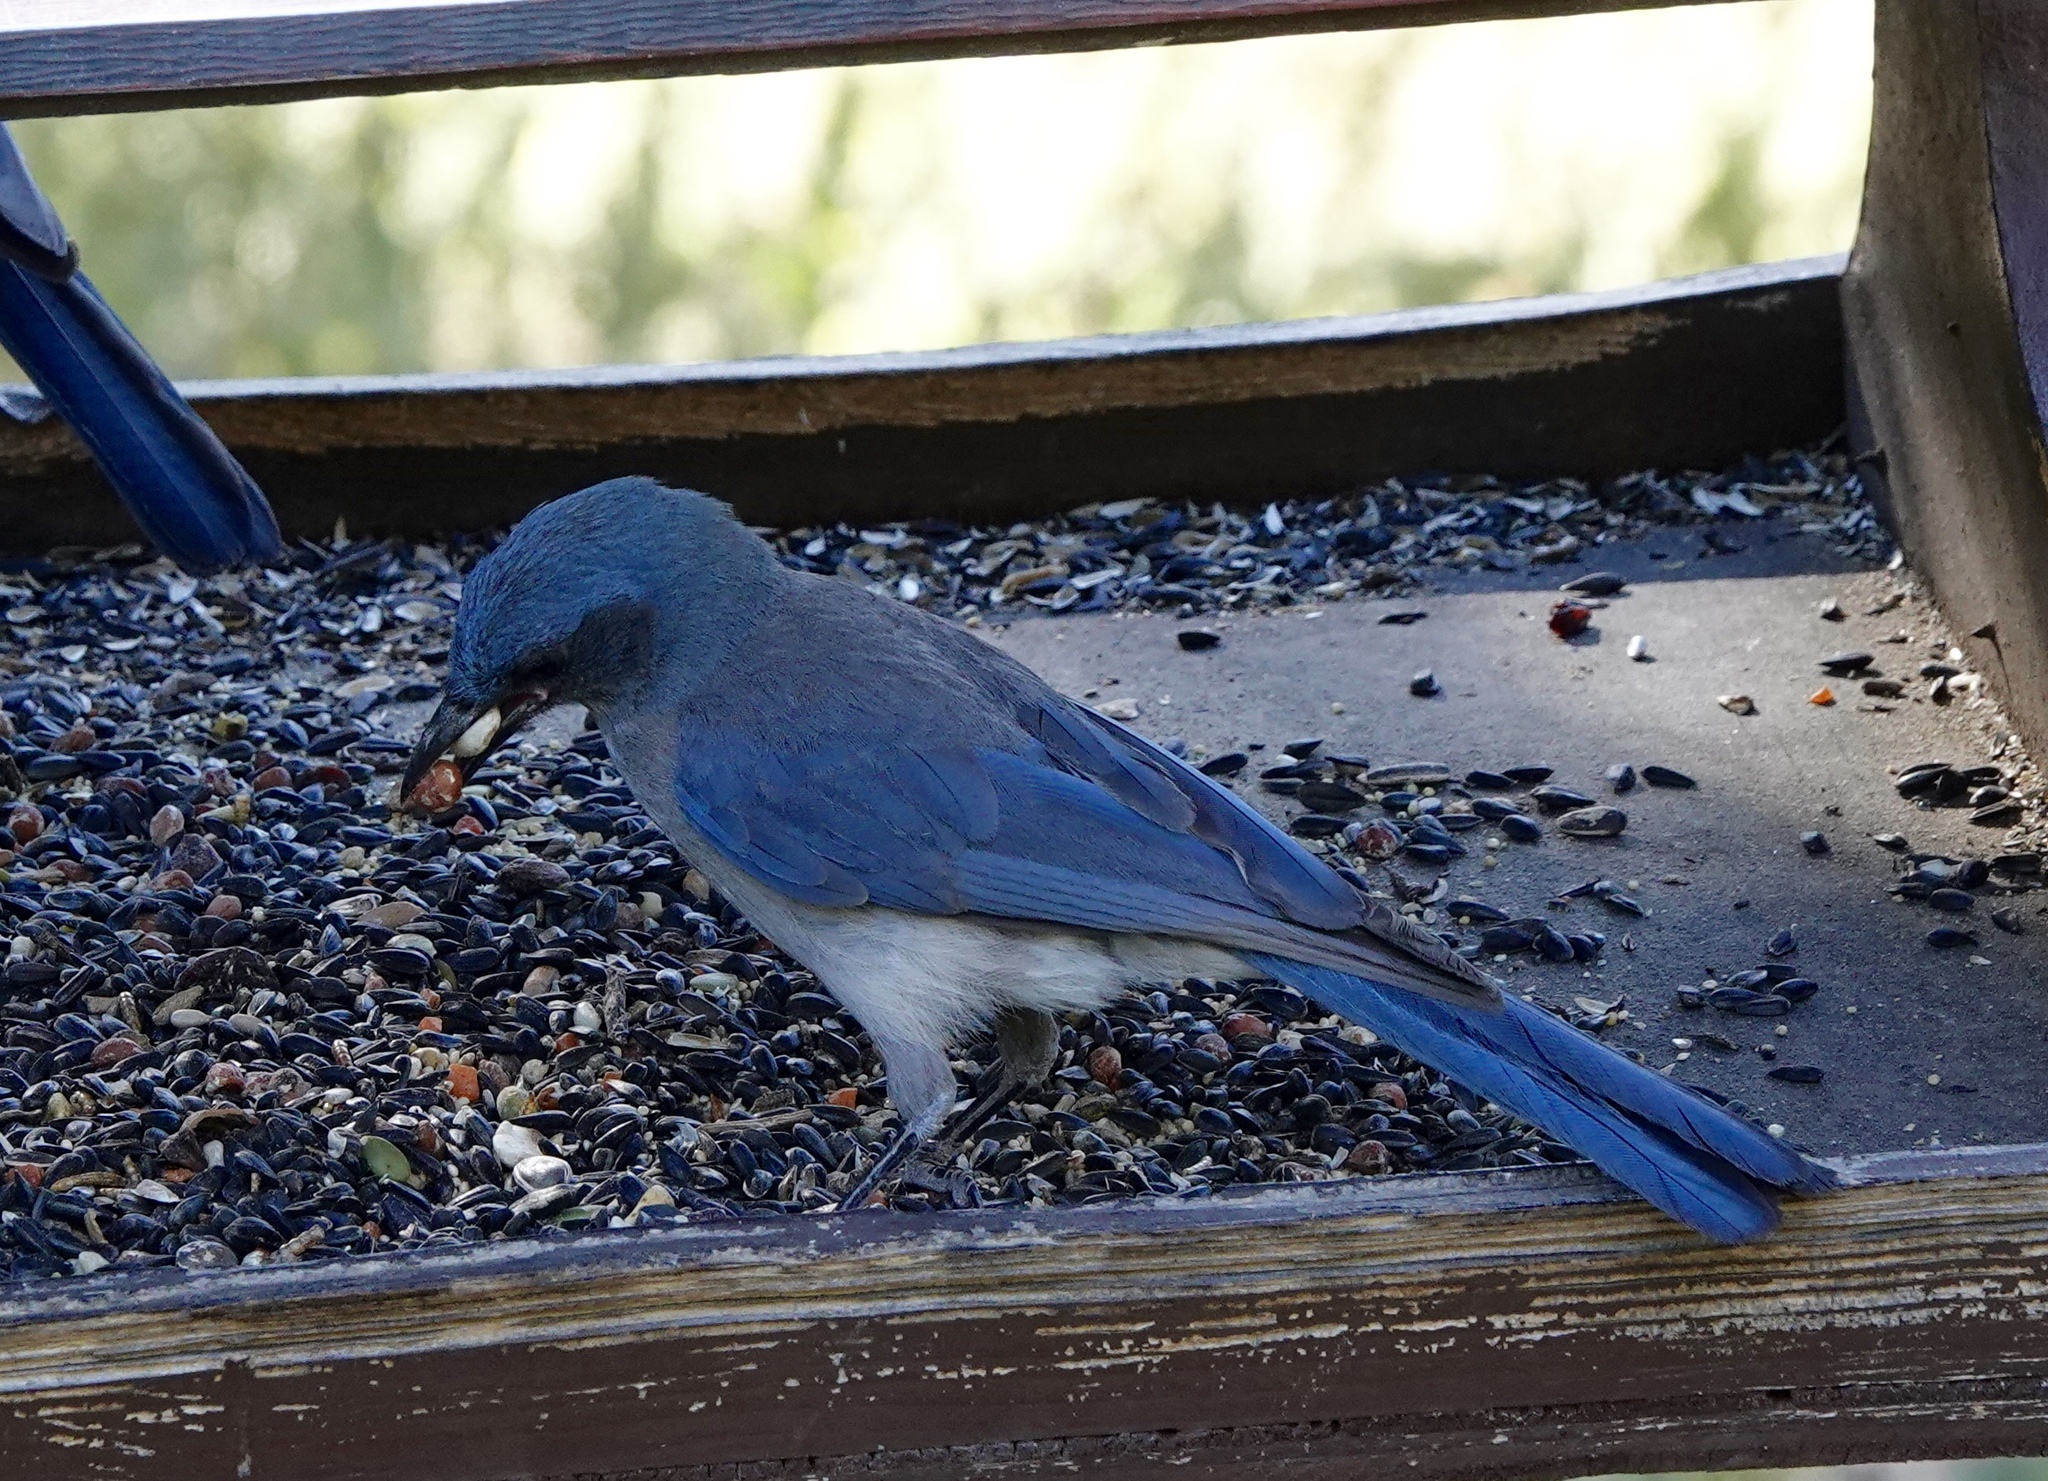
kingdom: Animalia
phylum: Chordata
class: Aves
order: Passeriformes
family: Corvidae
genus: Aphelocoma
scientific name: Aphelocoma wollweberi
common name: Mexican jay
